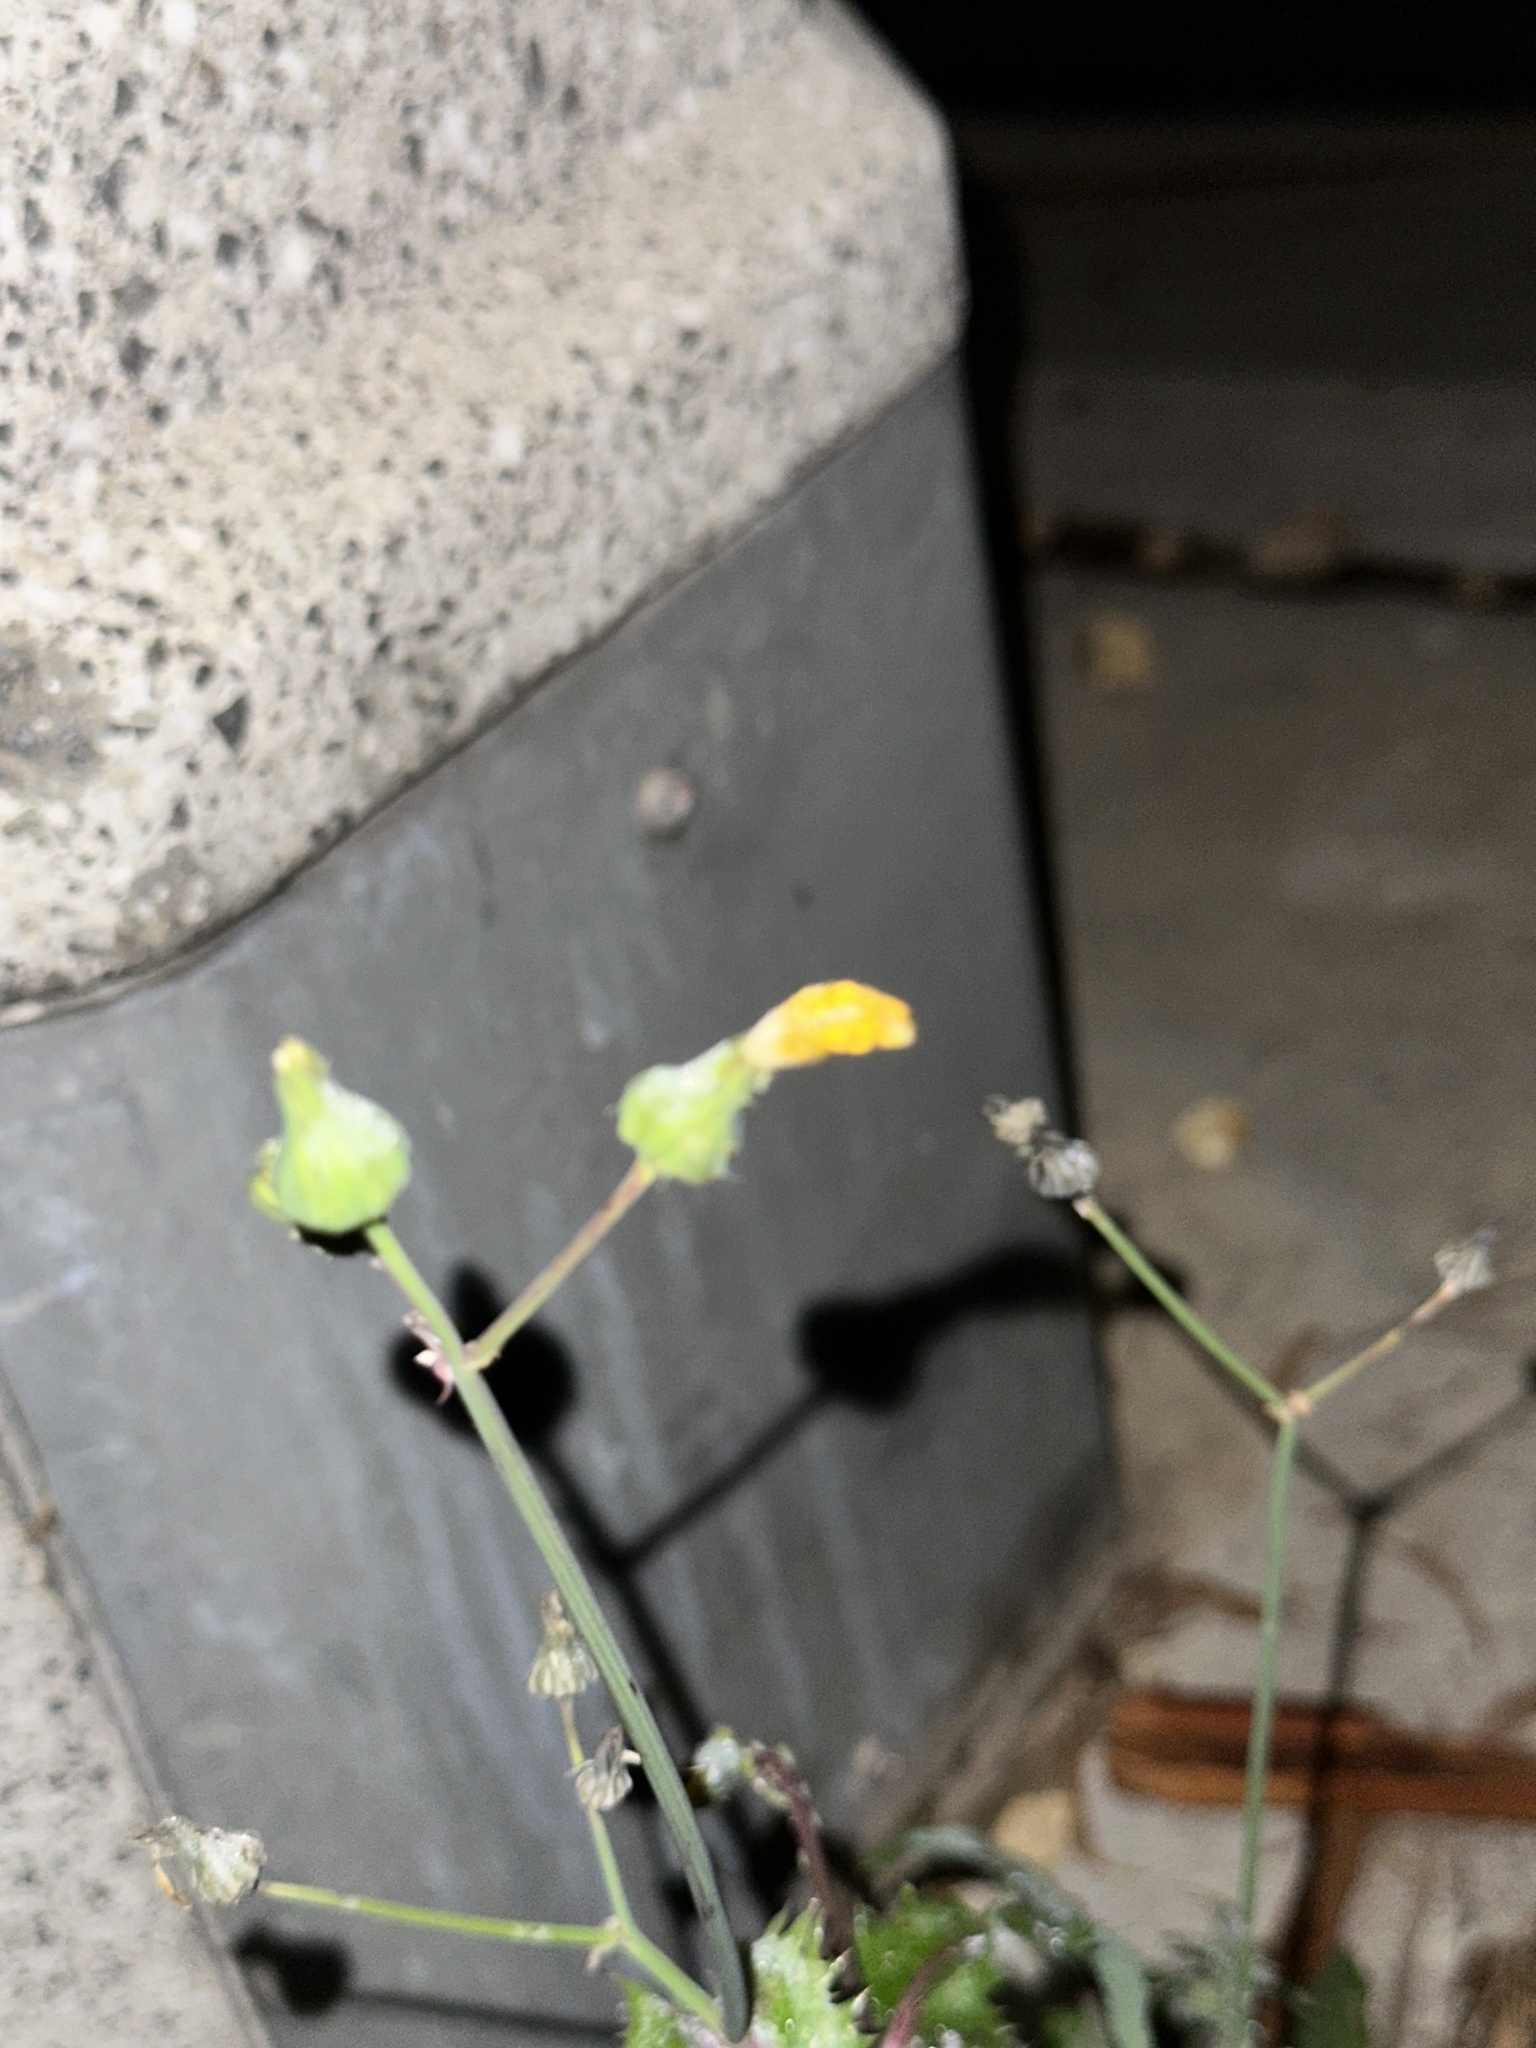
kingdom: Plantae
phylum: Tracheophyta
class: Magnoliopsida
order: Asterales
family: Asteraceae
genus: Sonchus
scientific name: Sonchus oleraceus
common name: Common sowthistle
